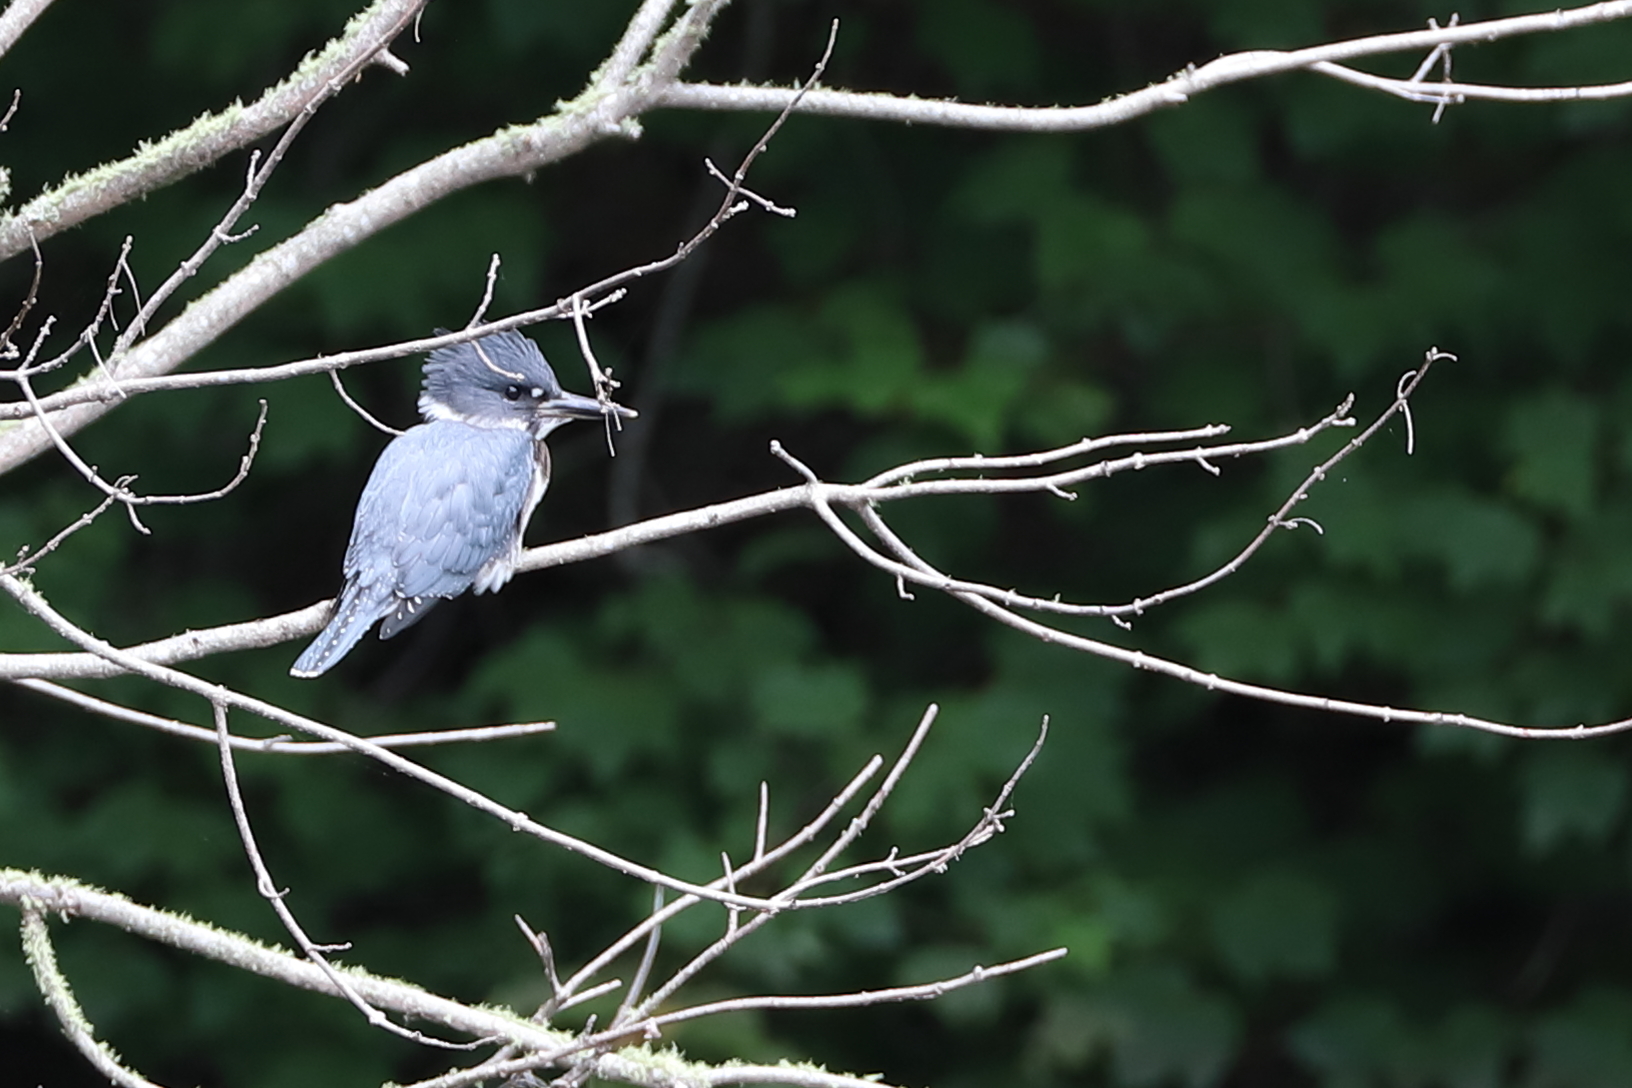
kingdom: Animalia
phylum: Chordata
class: Aves
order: Coraciiformes
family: Alcedinidae
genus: Megaceryle
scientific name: Megaceryle alcyon
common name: Belted kingfisher
